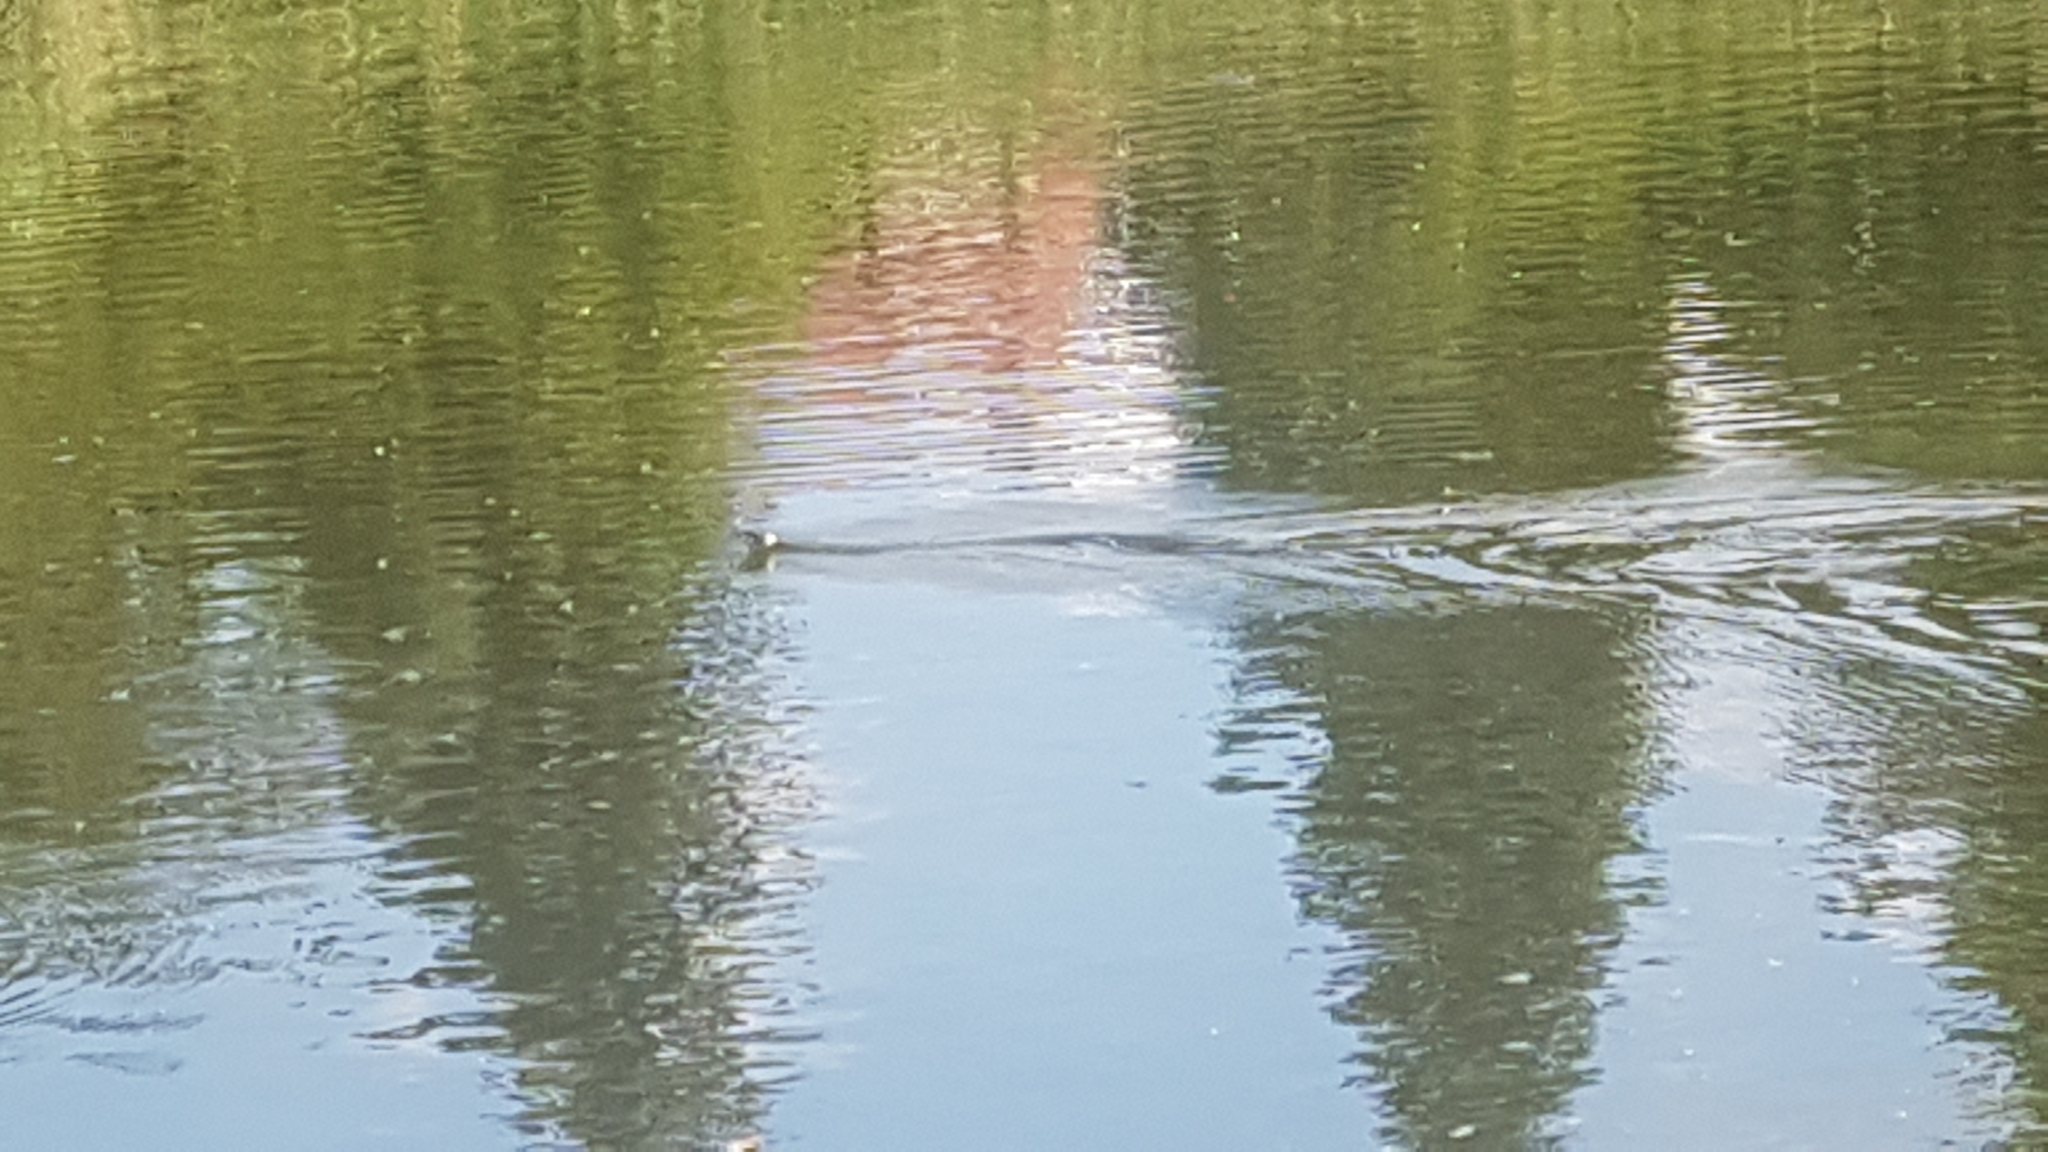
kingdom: Animalia
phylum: Chordata
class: Squamata
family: Colubridae
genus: Natrix
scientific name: Natrix natrix
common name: Grass snake
